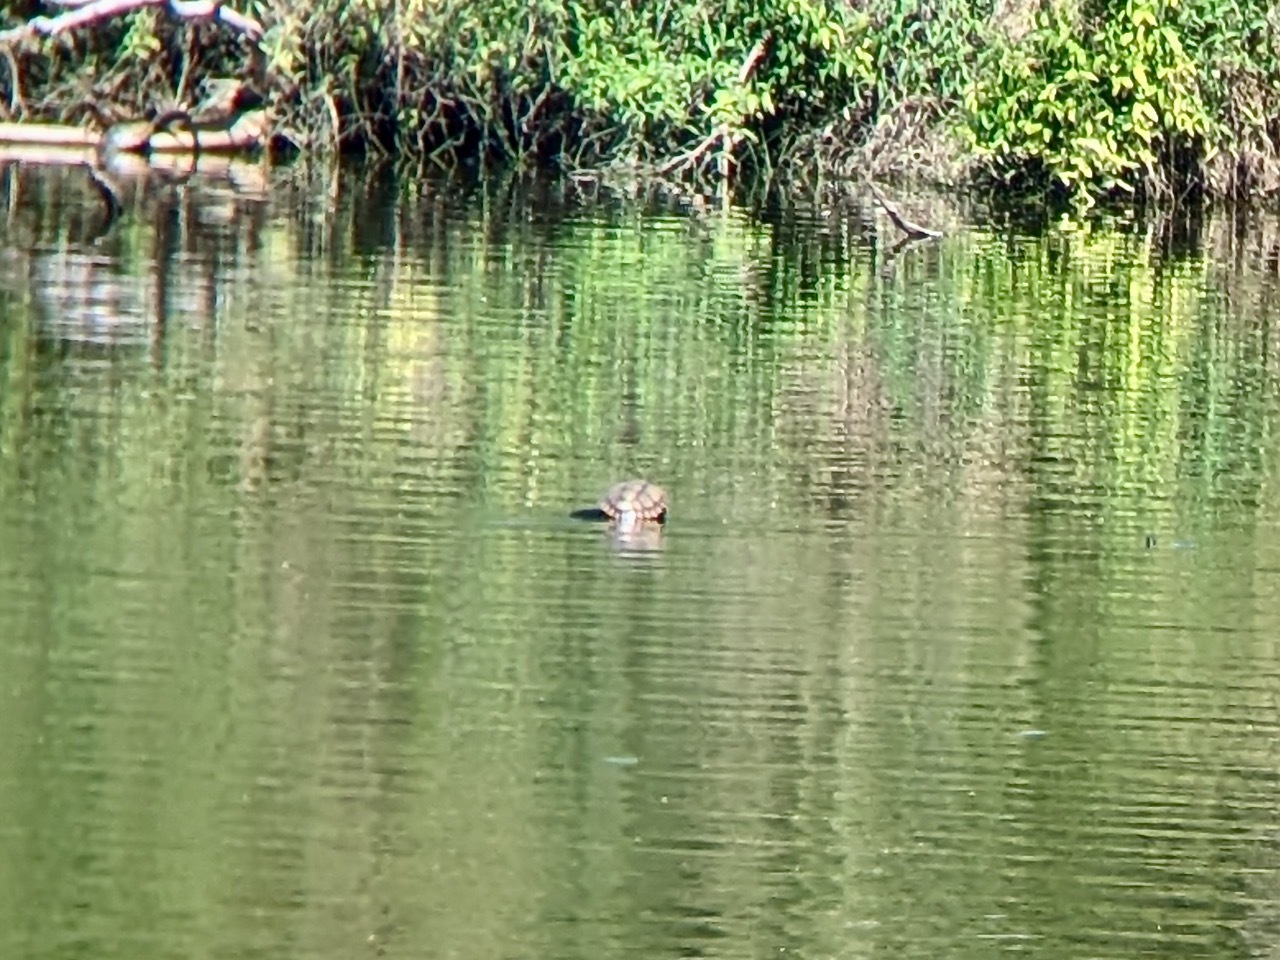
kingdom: Animalia
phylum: Chordata
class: Testudines
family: Emydidae
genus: Trachemys
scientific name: Trachemys scripta
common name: Slider
